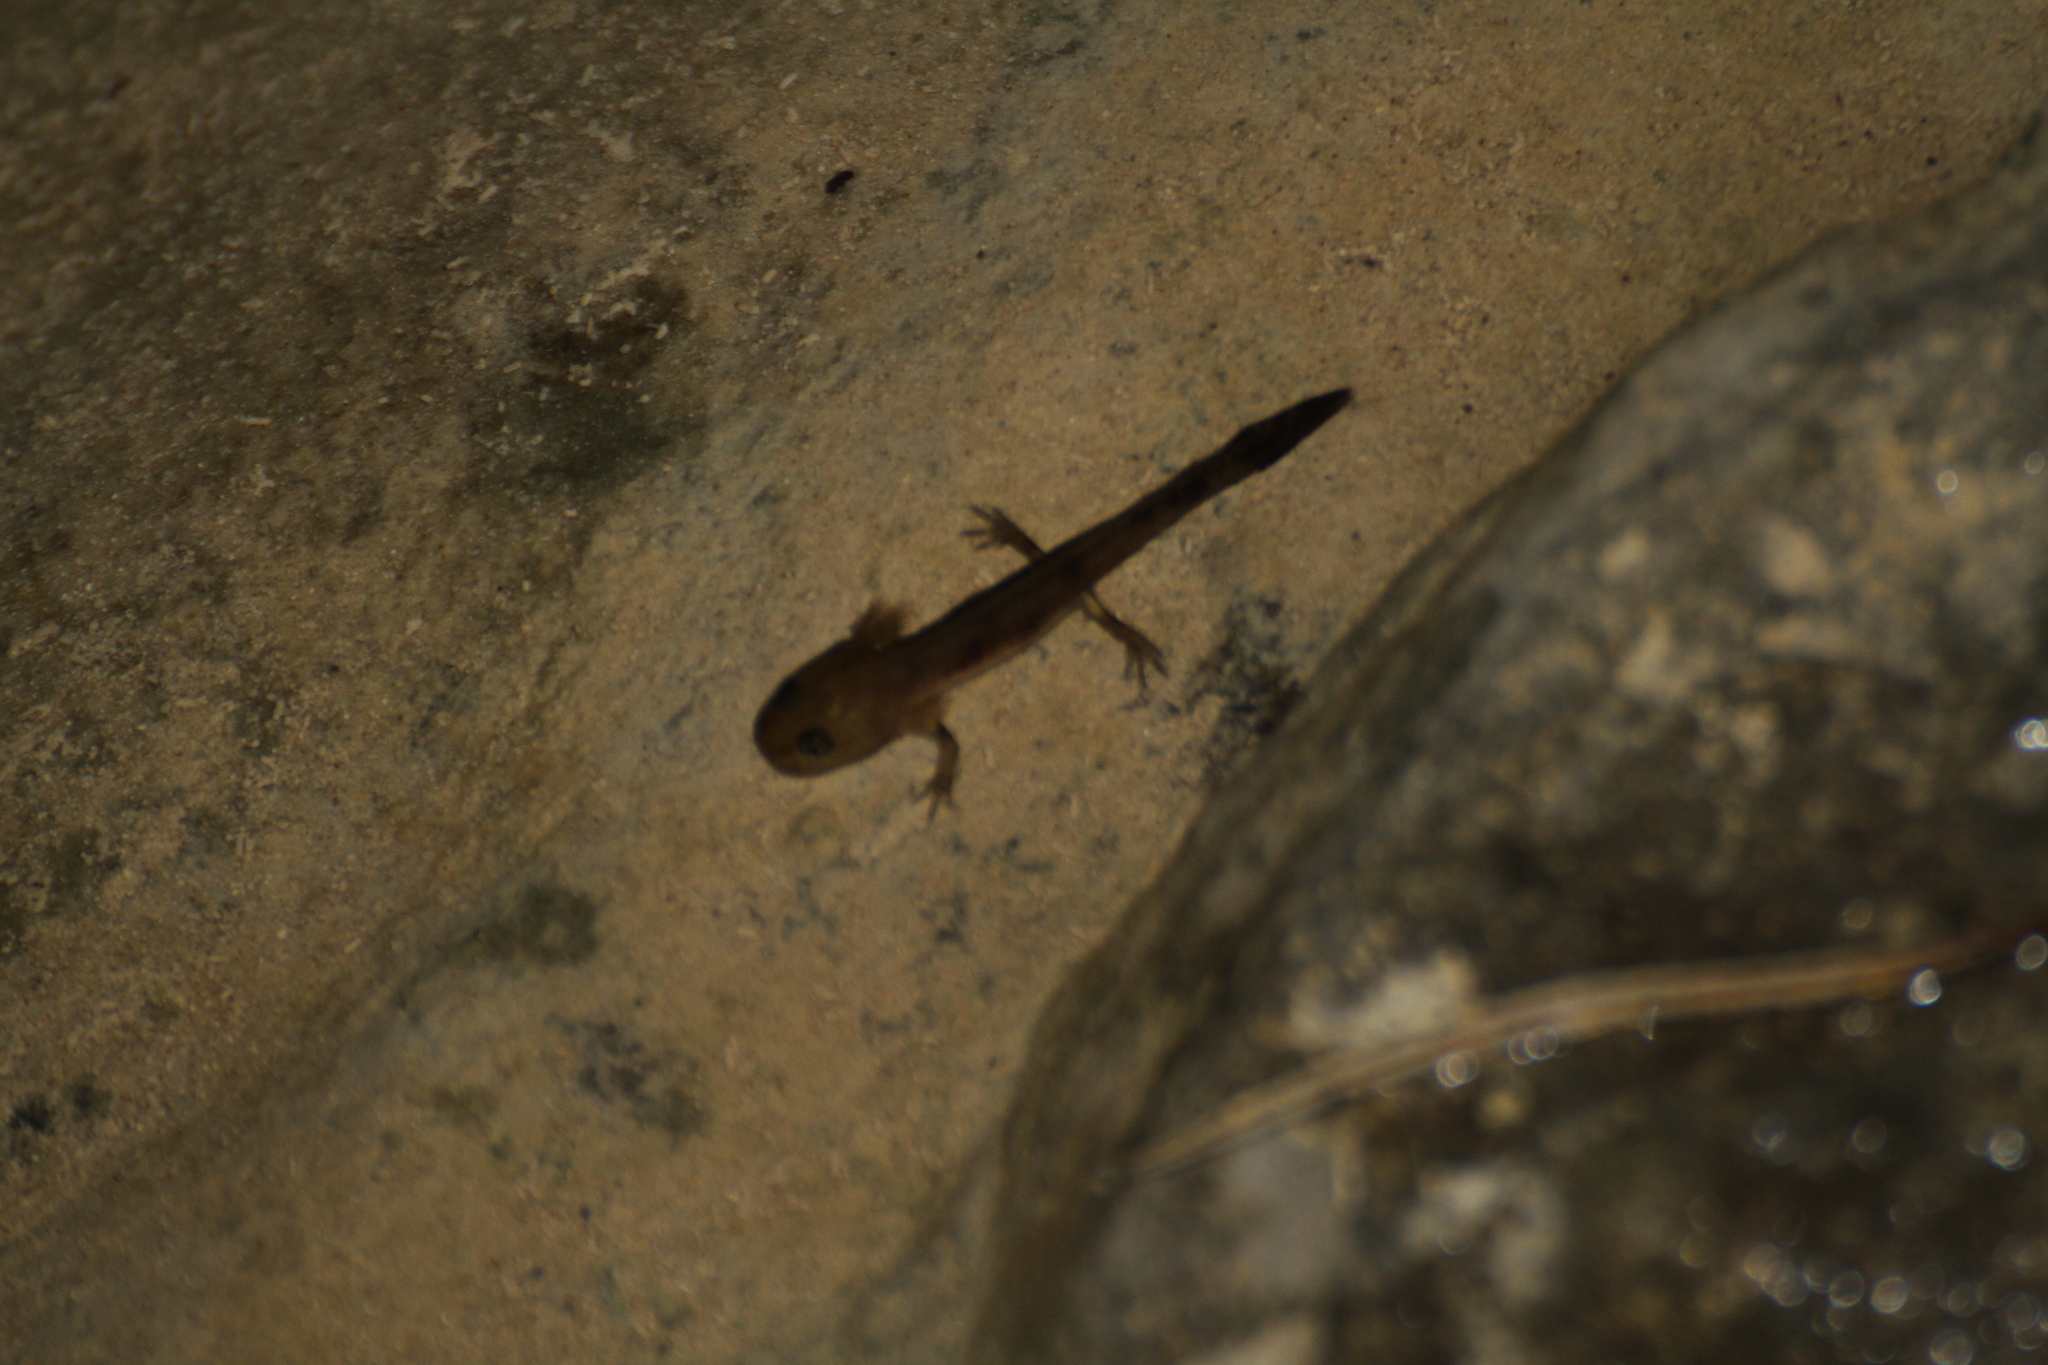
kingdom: Animalia
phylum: Chordata
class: Amphibia
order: Caudata
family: Salamandridae
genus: Salamandra
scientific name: Salamandra salamandra
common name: Fire salamander
